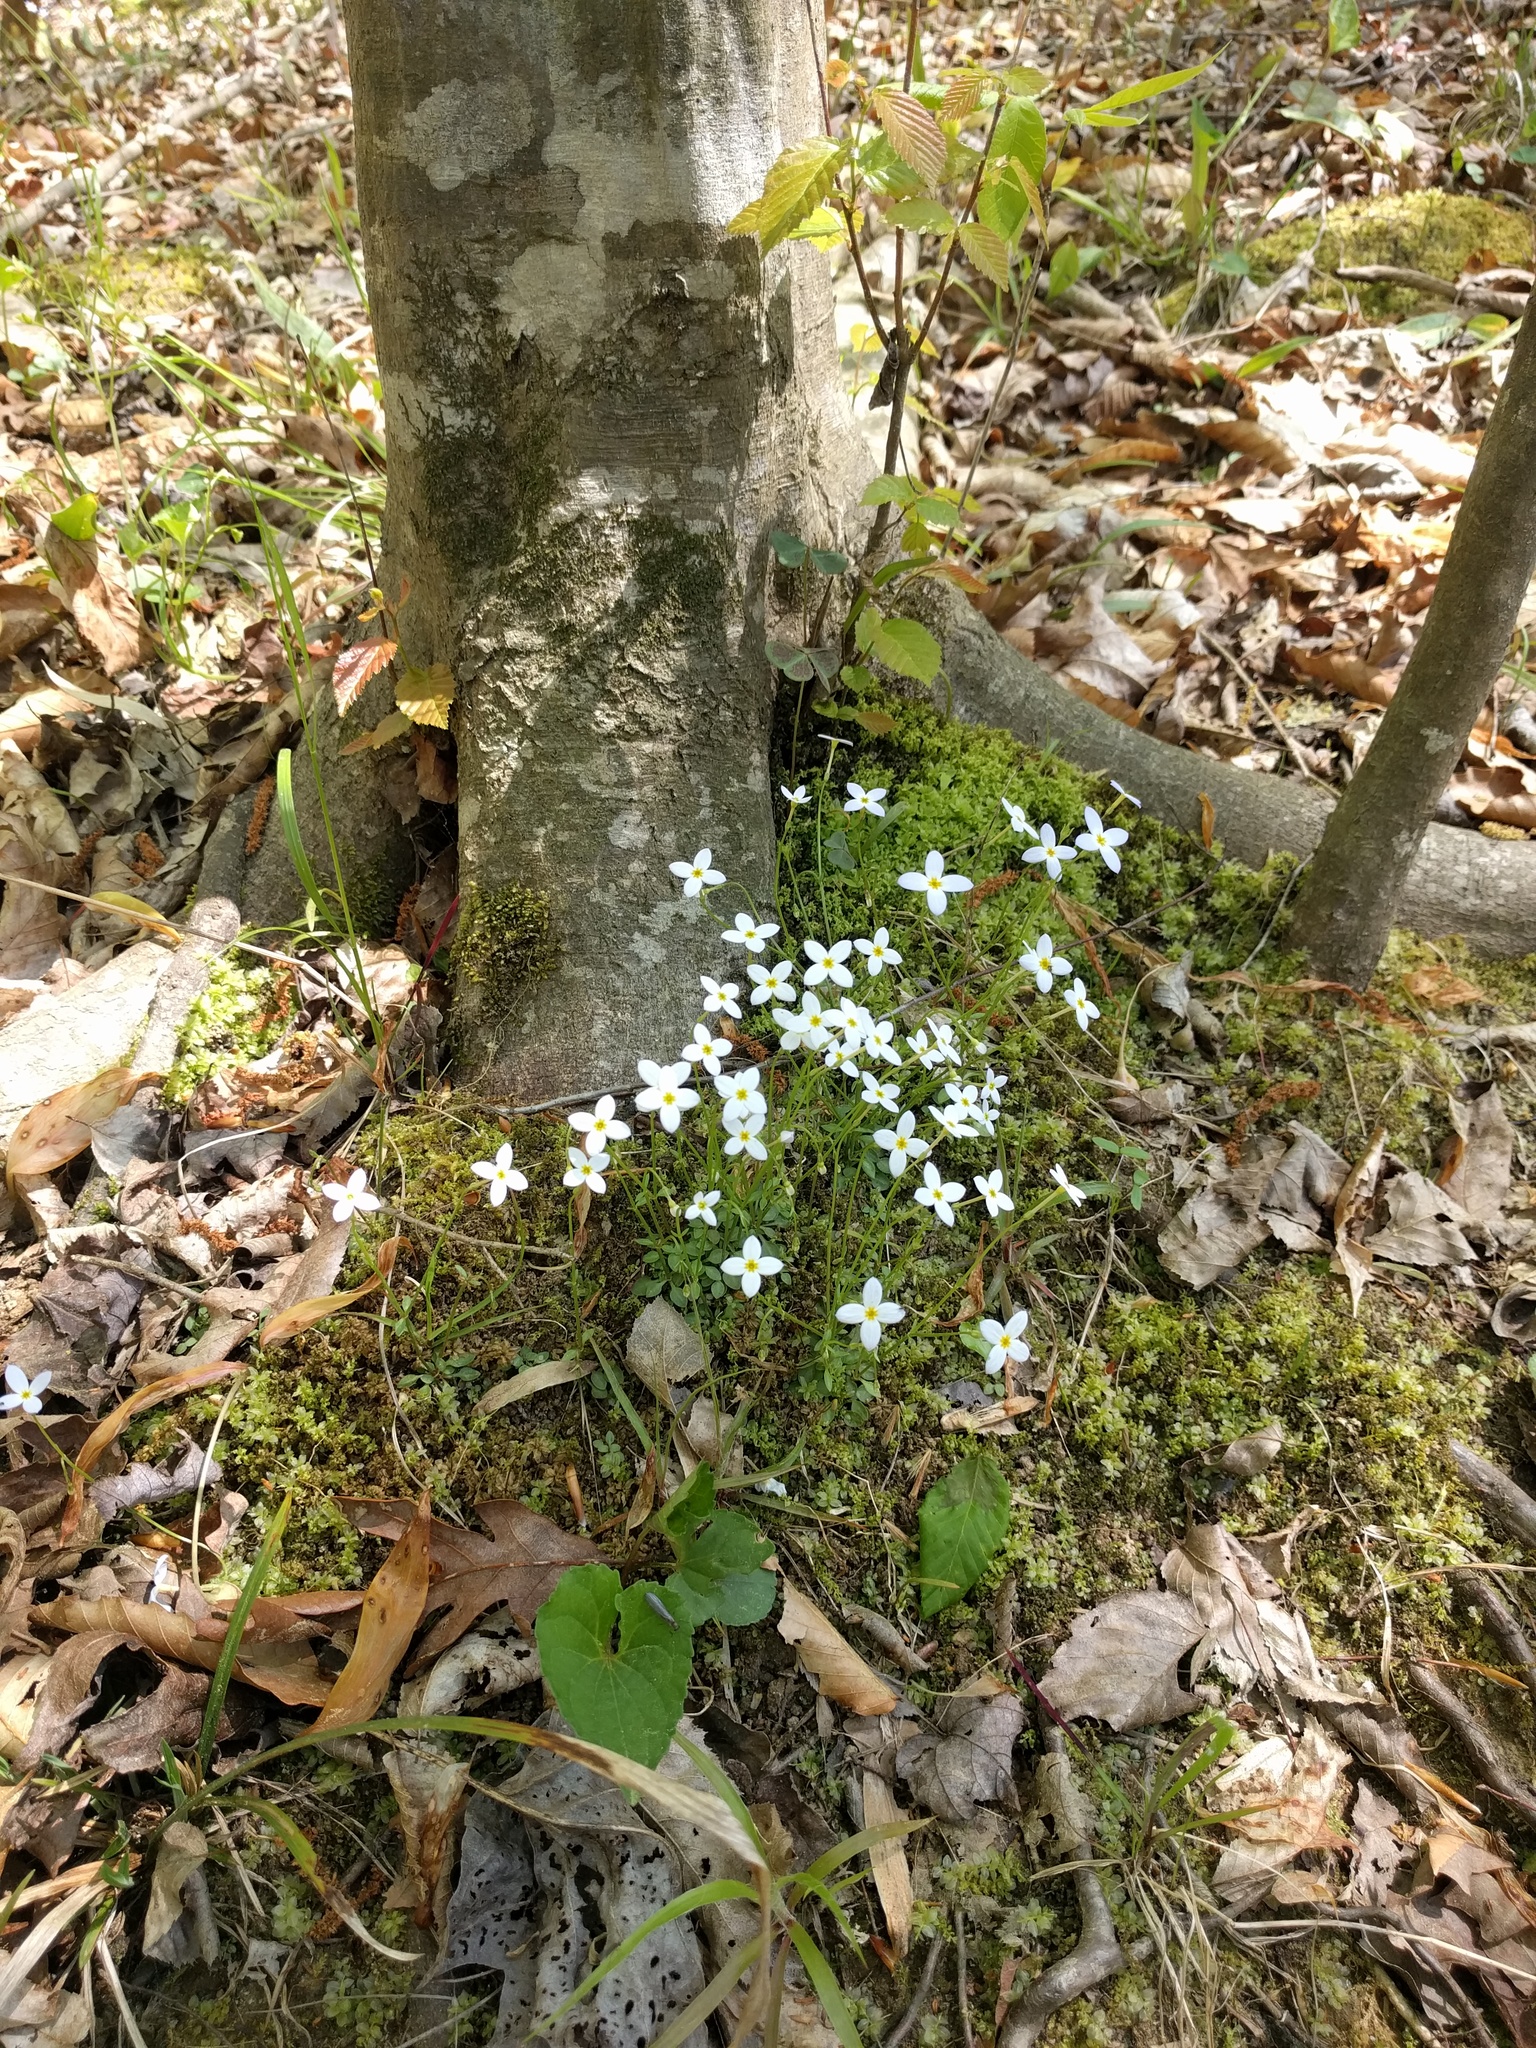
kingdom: Plantae
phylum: Tracheophyta
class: Magnoliopsida
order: Gentianales
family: Rubiaceae
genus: Houstonia
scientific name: Houstonia caerulea
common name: Bluets
